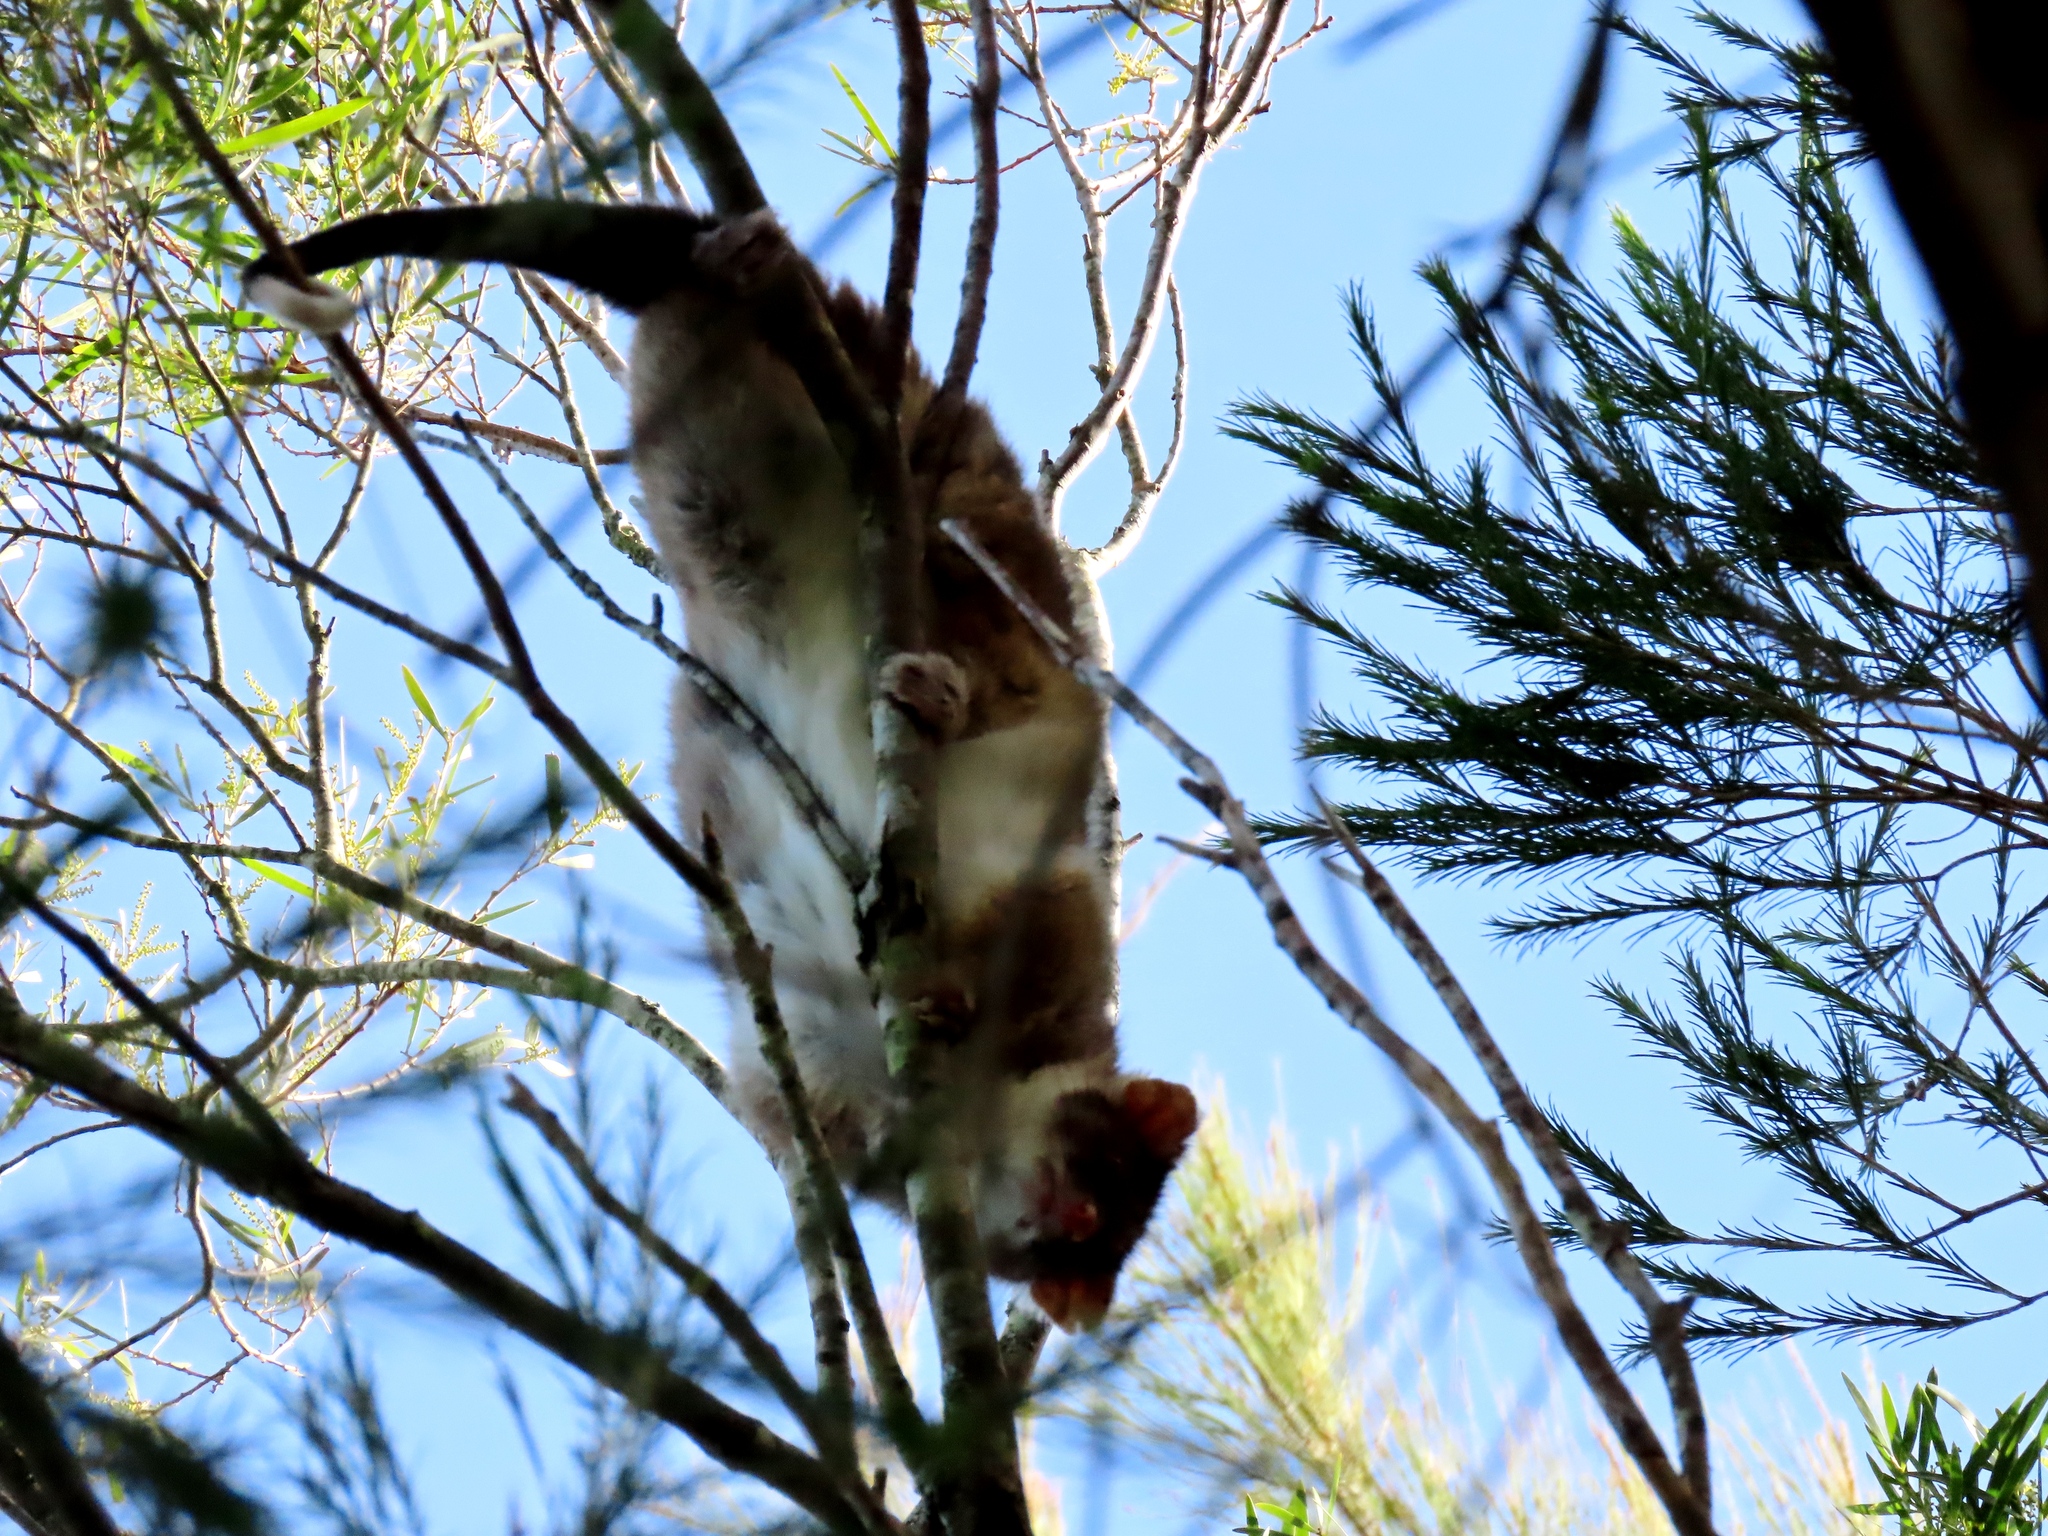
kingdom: Animalia
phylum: Chordata
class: Mammalia
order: Diprotodontia
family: Pseudocheiridae
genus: Pseudocheirus
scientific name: Pseudocheirus peregrinus
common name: Common ringtail possum
